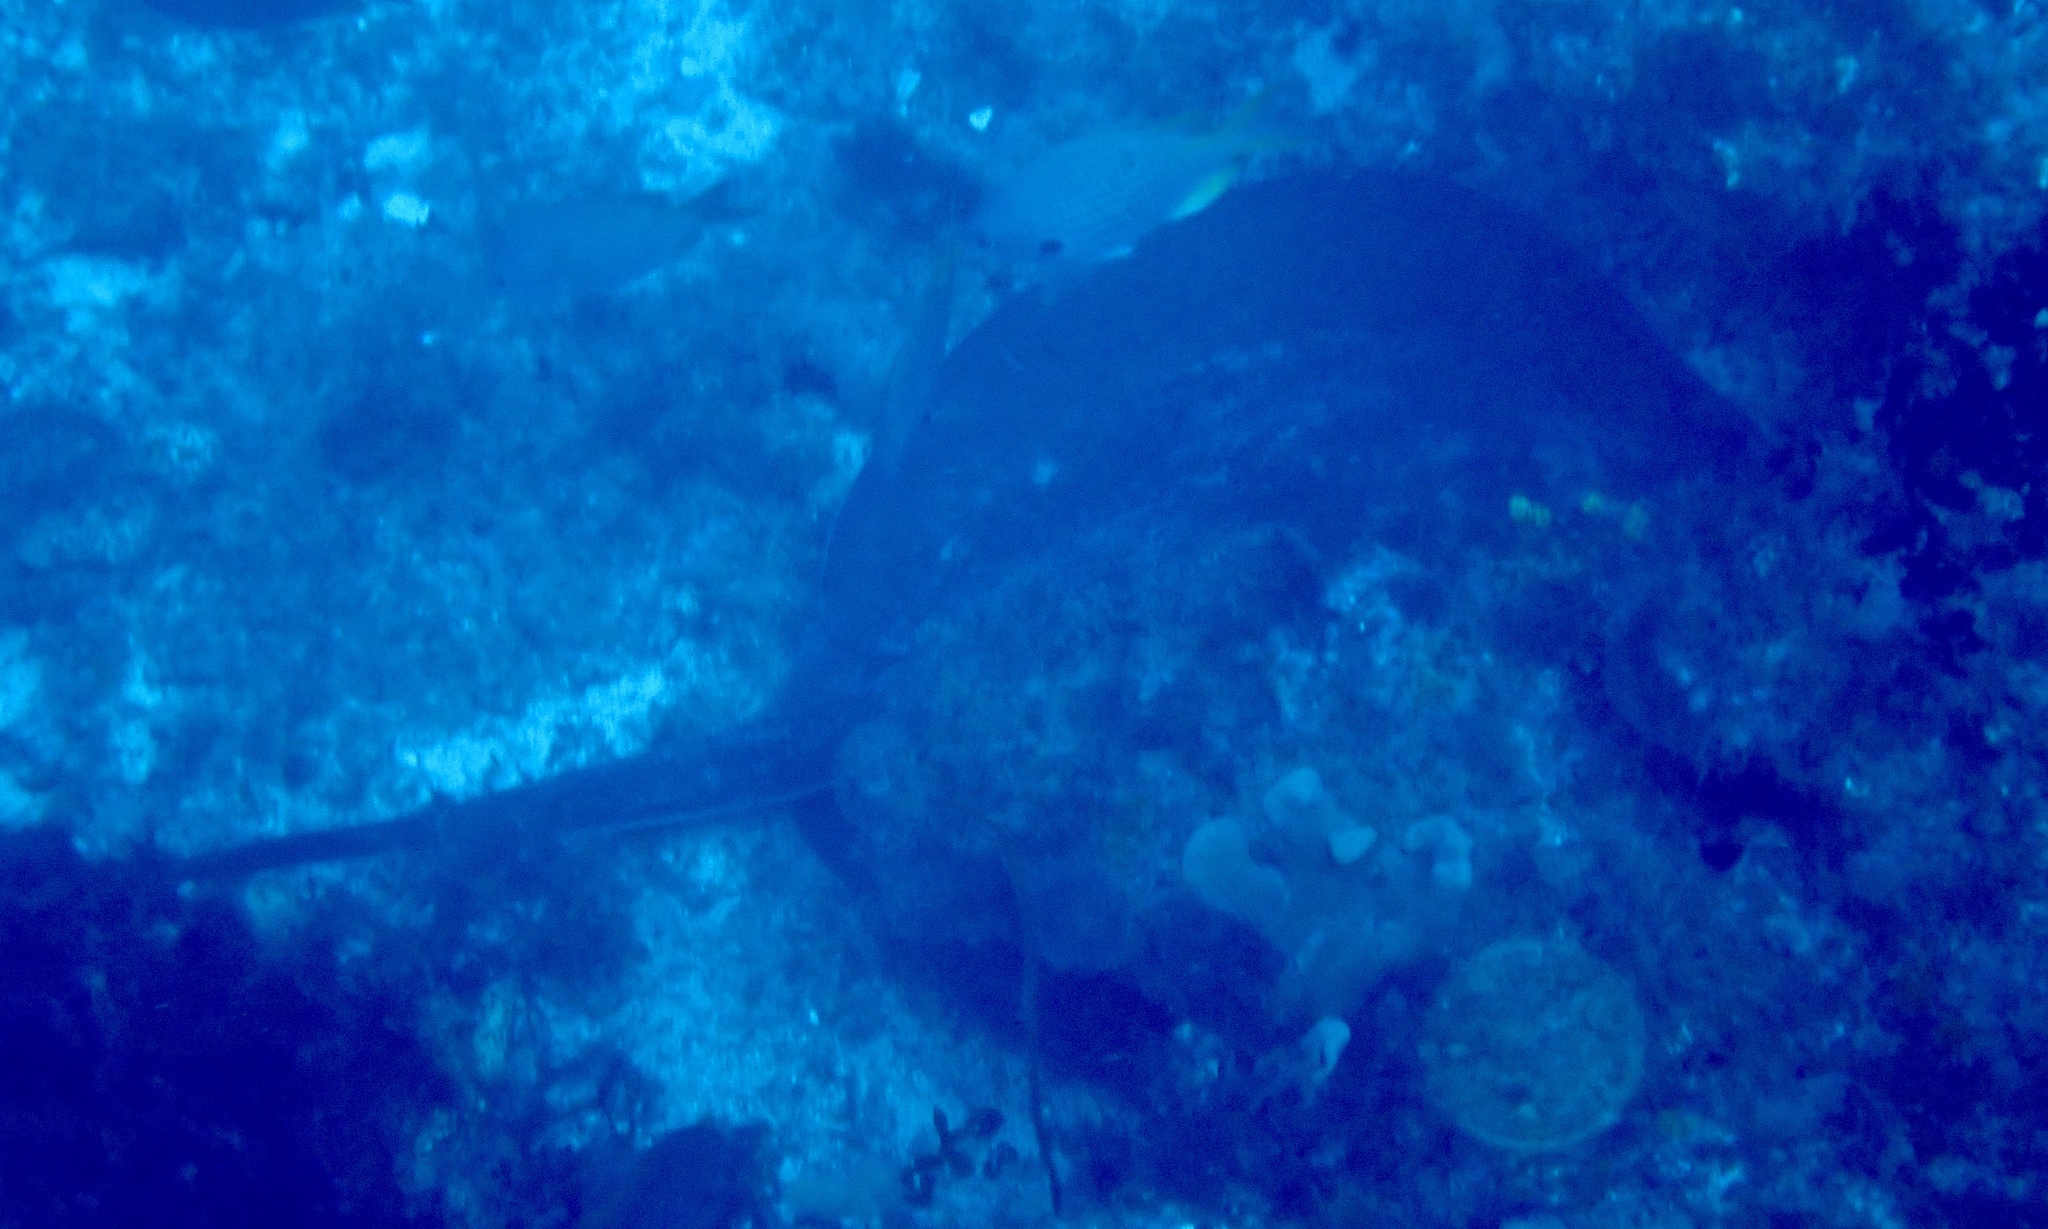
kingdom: Animalia
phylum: Chordata
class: Elasmobranchii
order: Myliobatiformes
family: Dasyatidae
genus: Taeniura
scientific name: Taeniura grabata
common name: Round stingray
